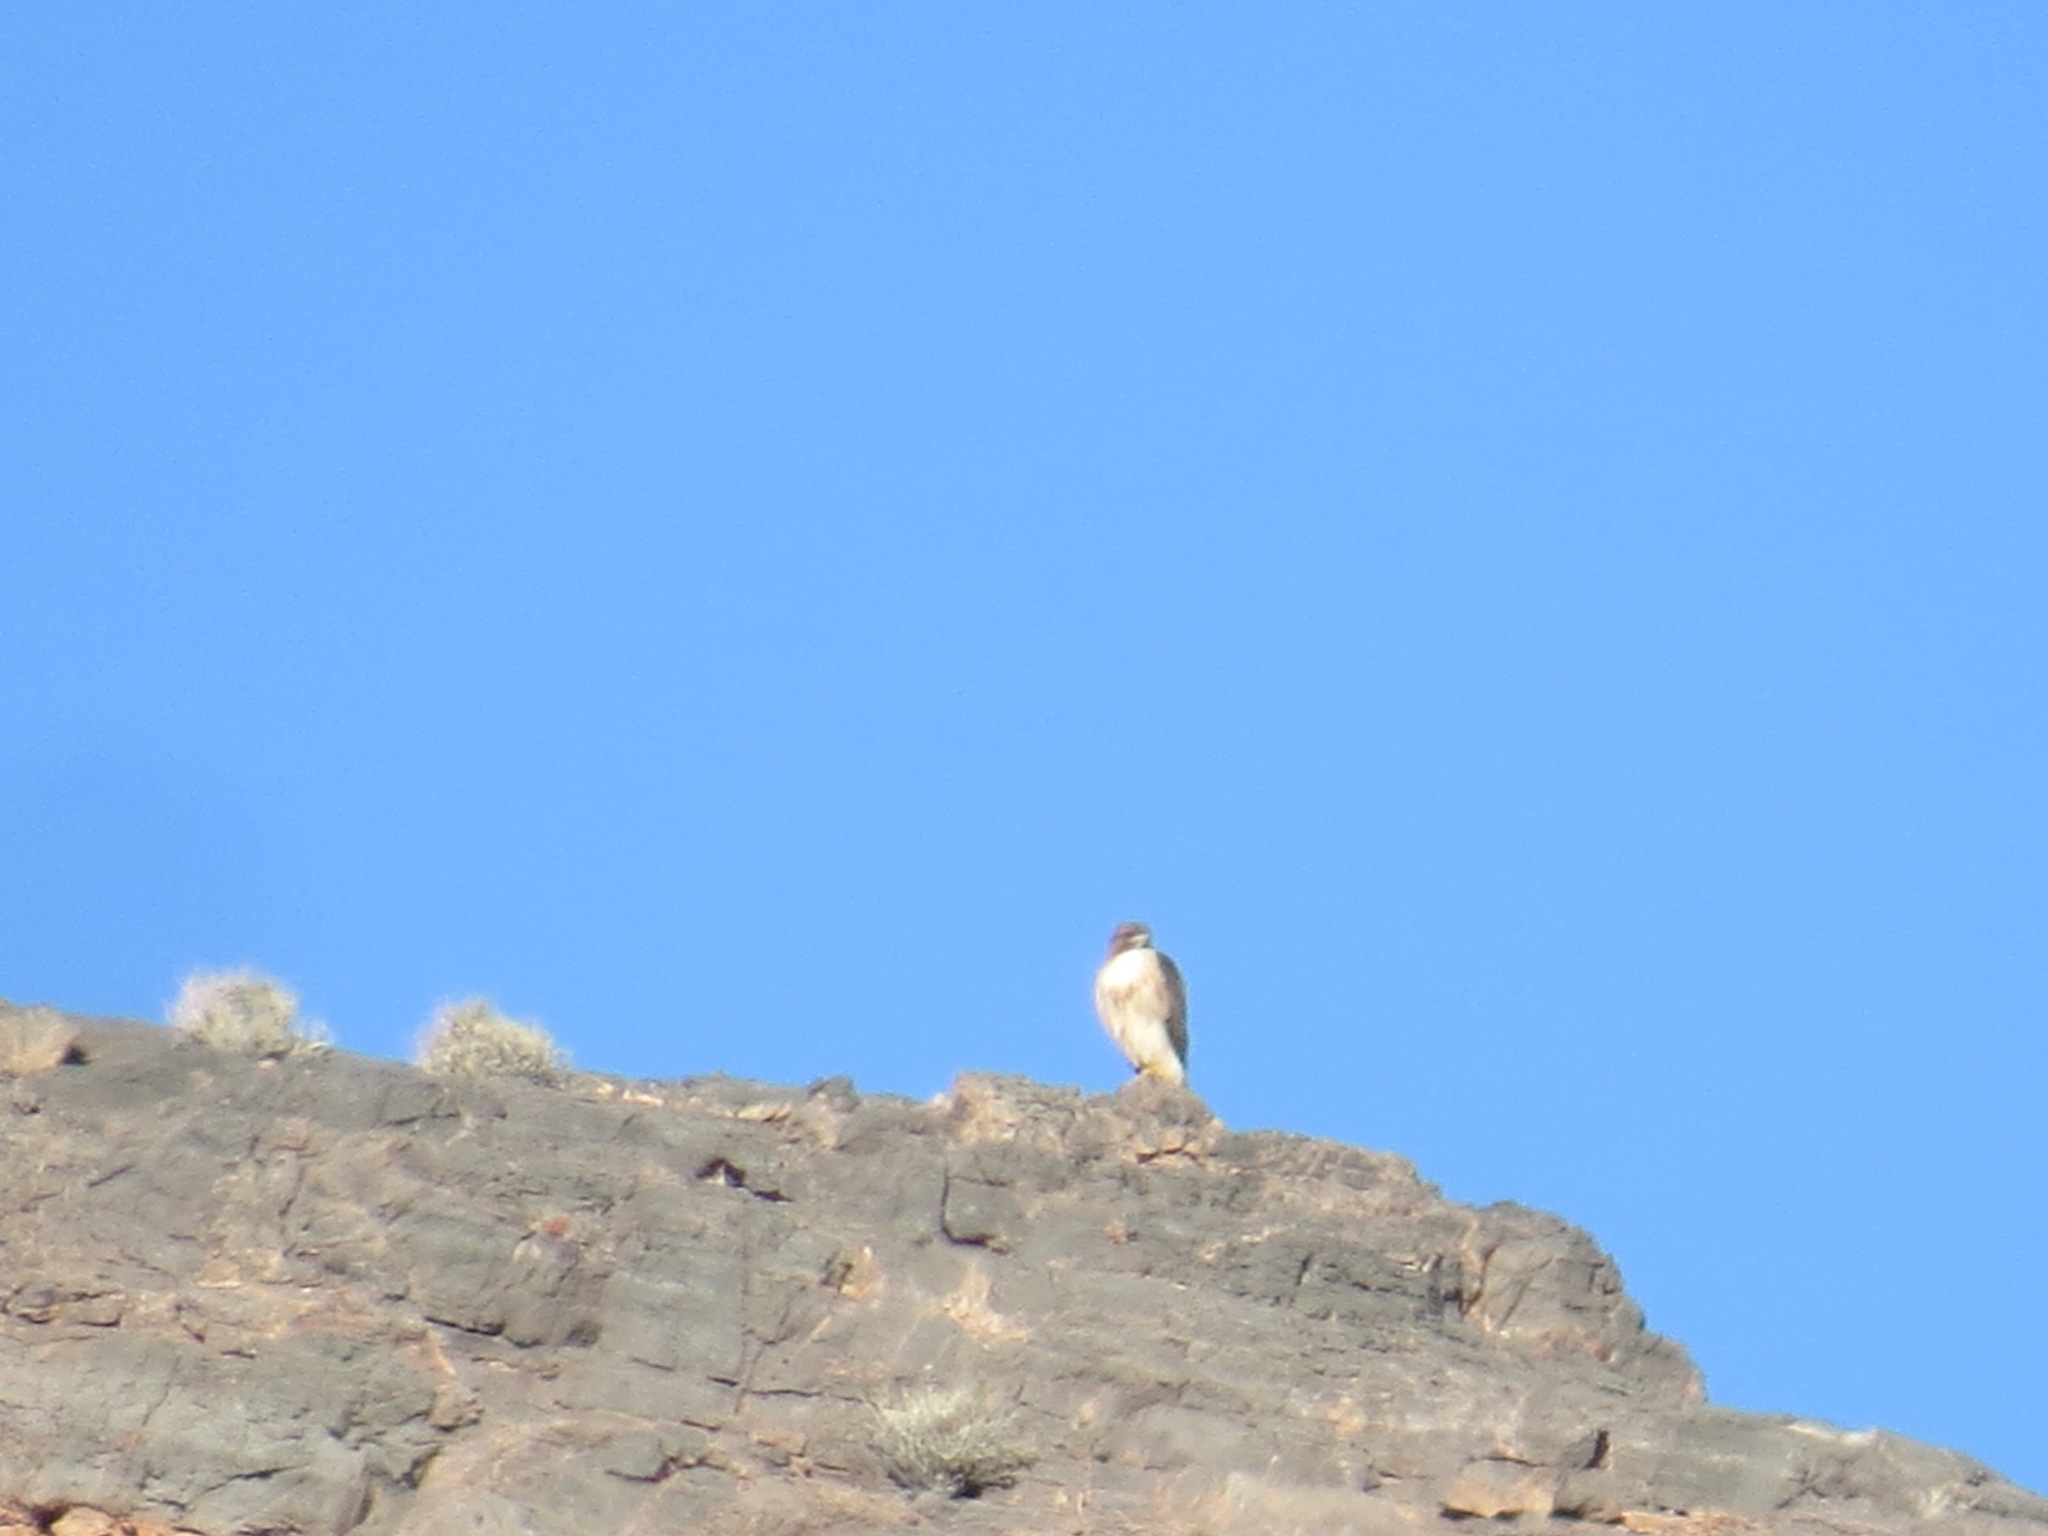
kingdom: Animalia
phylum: Chordata
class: Aves
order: Accipitriformes
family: Accipitridae
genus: Buteo
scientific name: Buteo jamaicensis
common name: Red-tailed hawk
